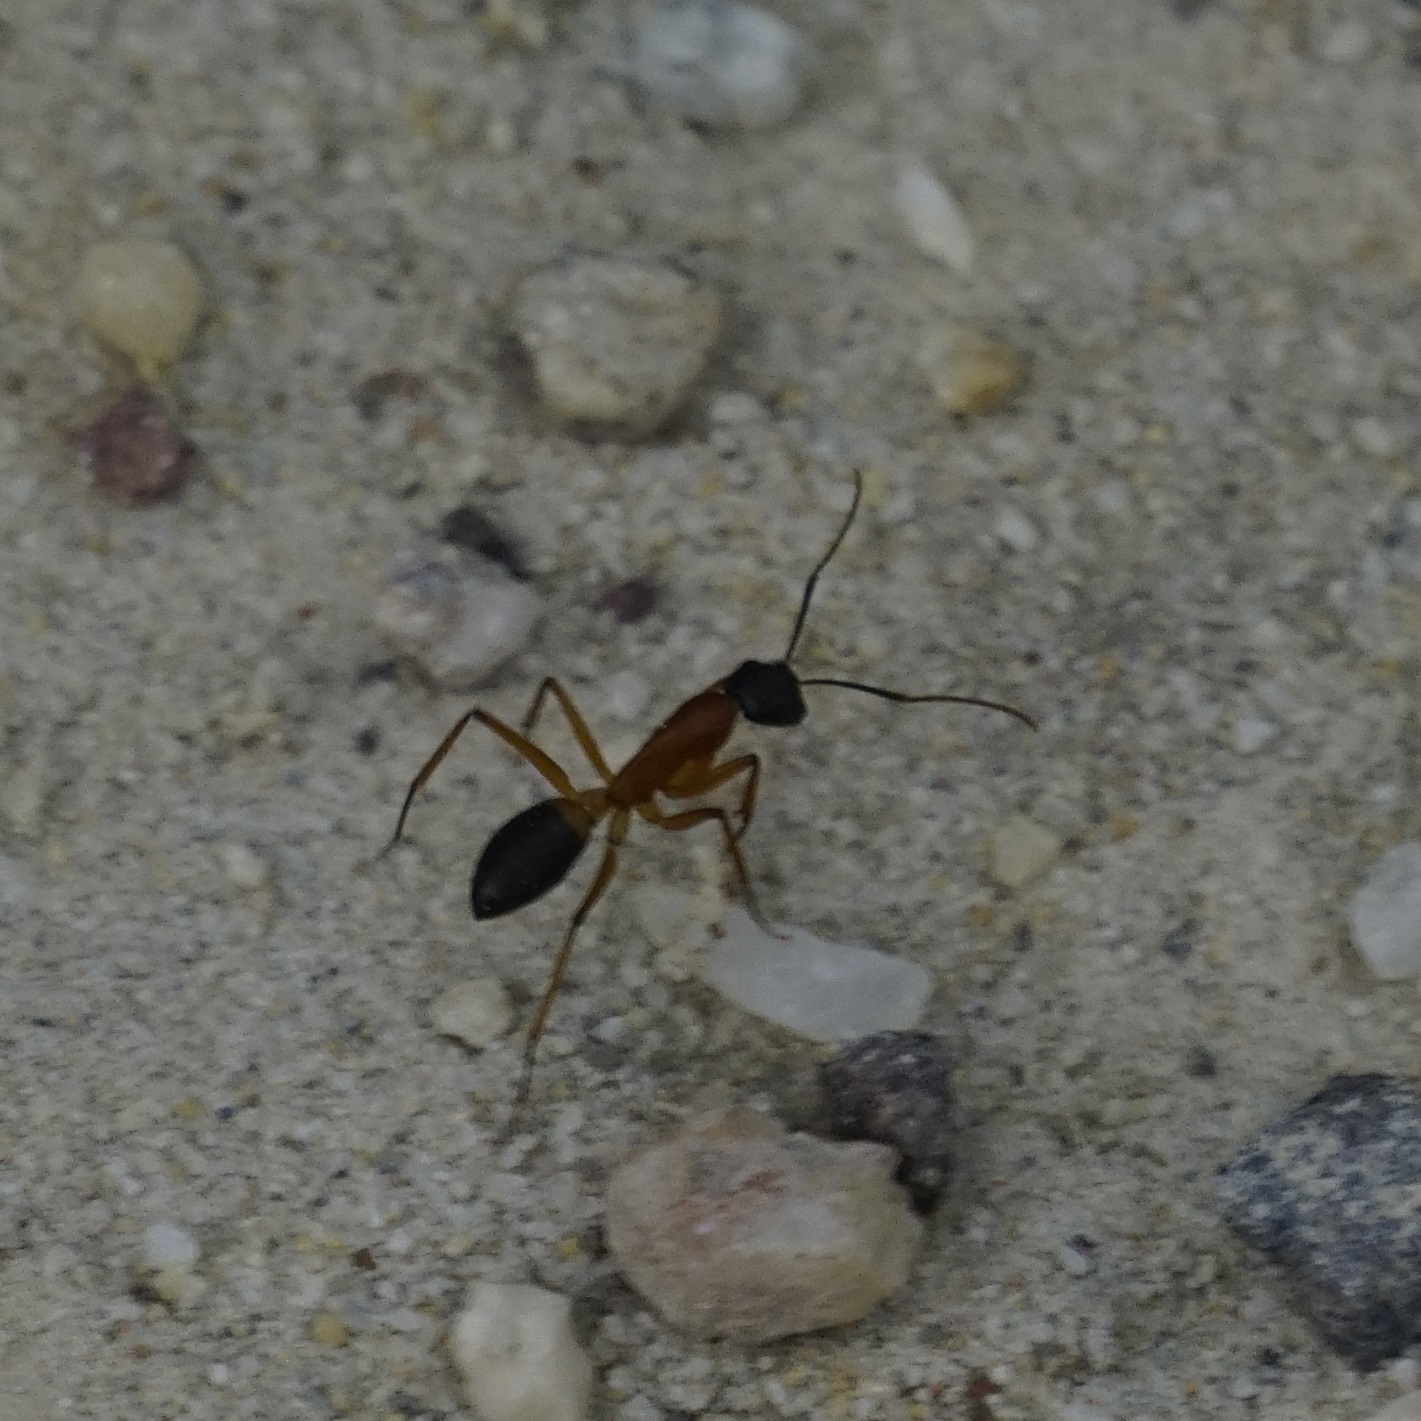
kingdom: Animalia
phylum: Arthropoda
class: Insecta
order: Hymenoptera
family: Formicidae
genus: Camponotus
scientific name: Camponotus consobrinus
